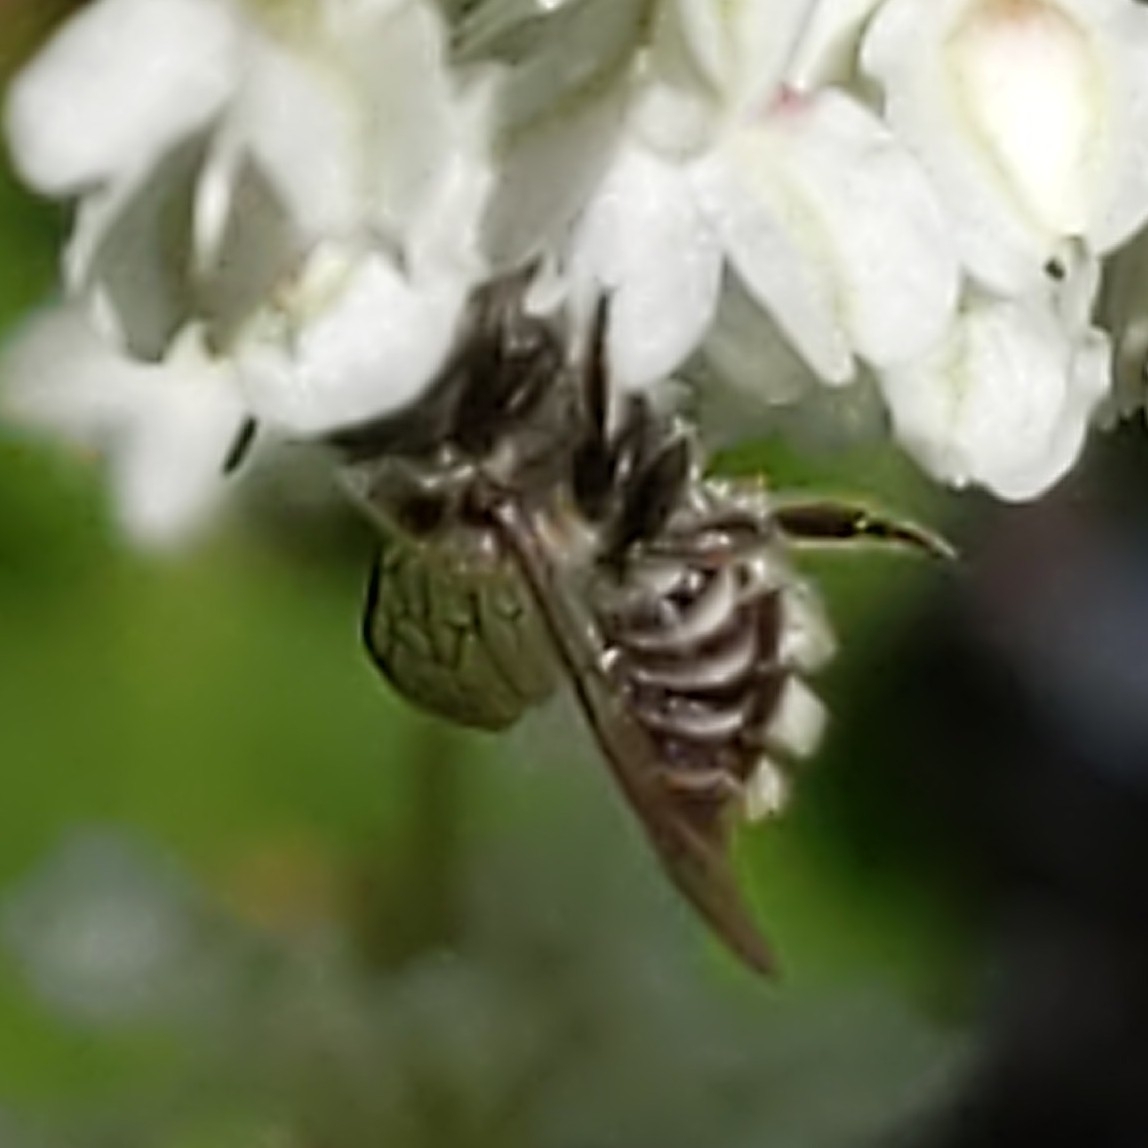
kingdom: Animalia
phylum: Arthropoda
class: Insecta
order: Hymenoptera
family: Megachilidae
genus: Megachile
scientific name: Megachile
